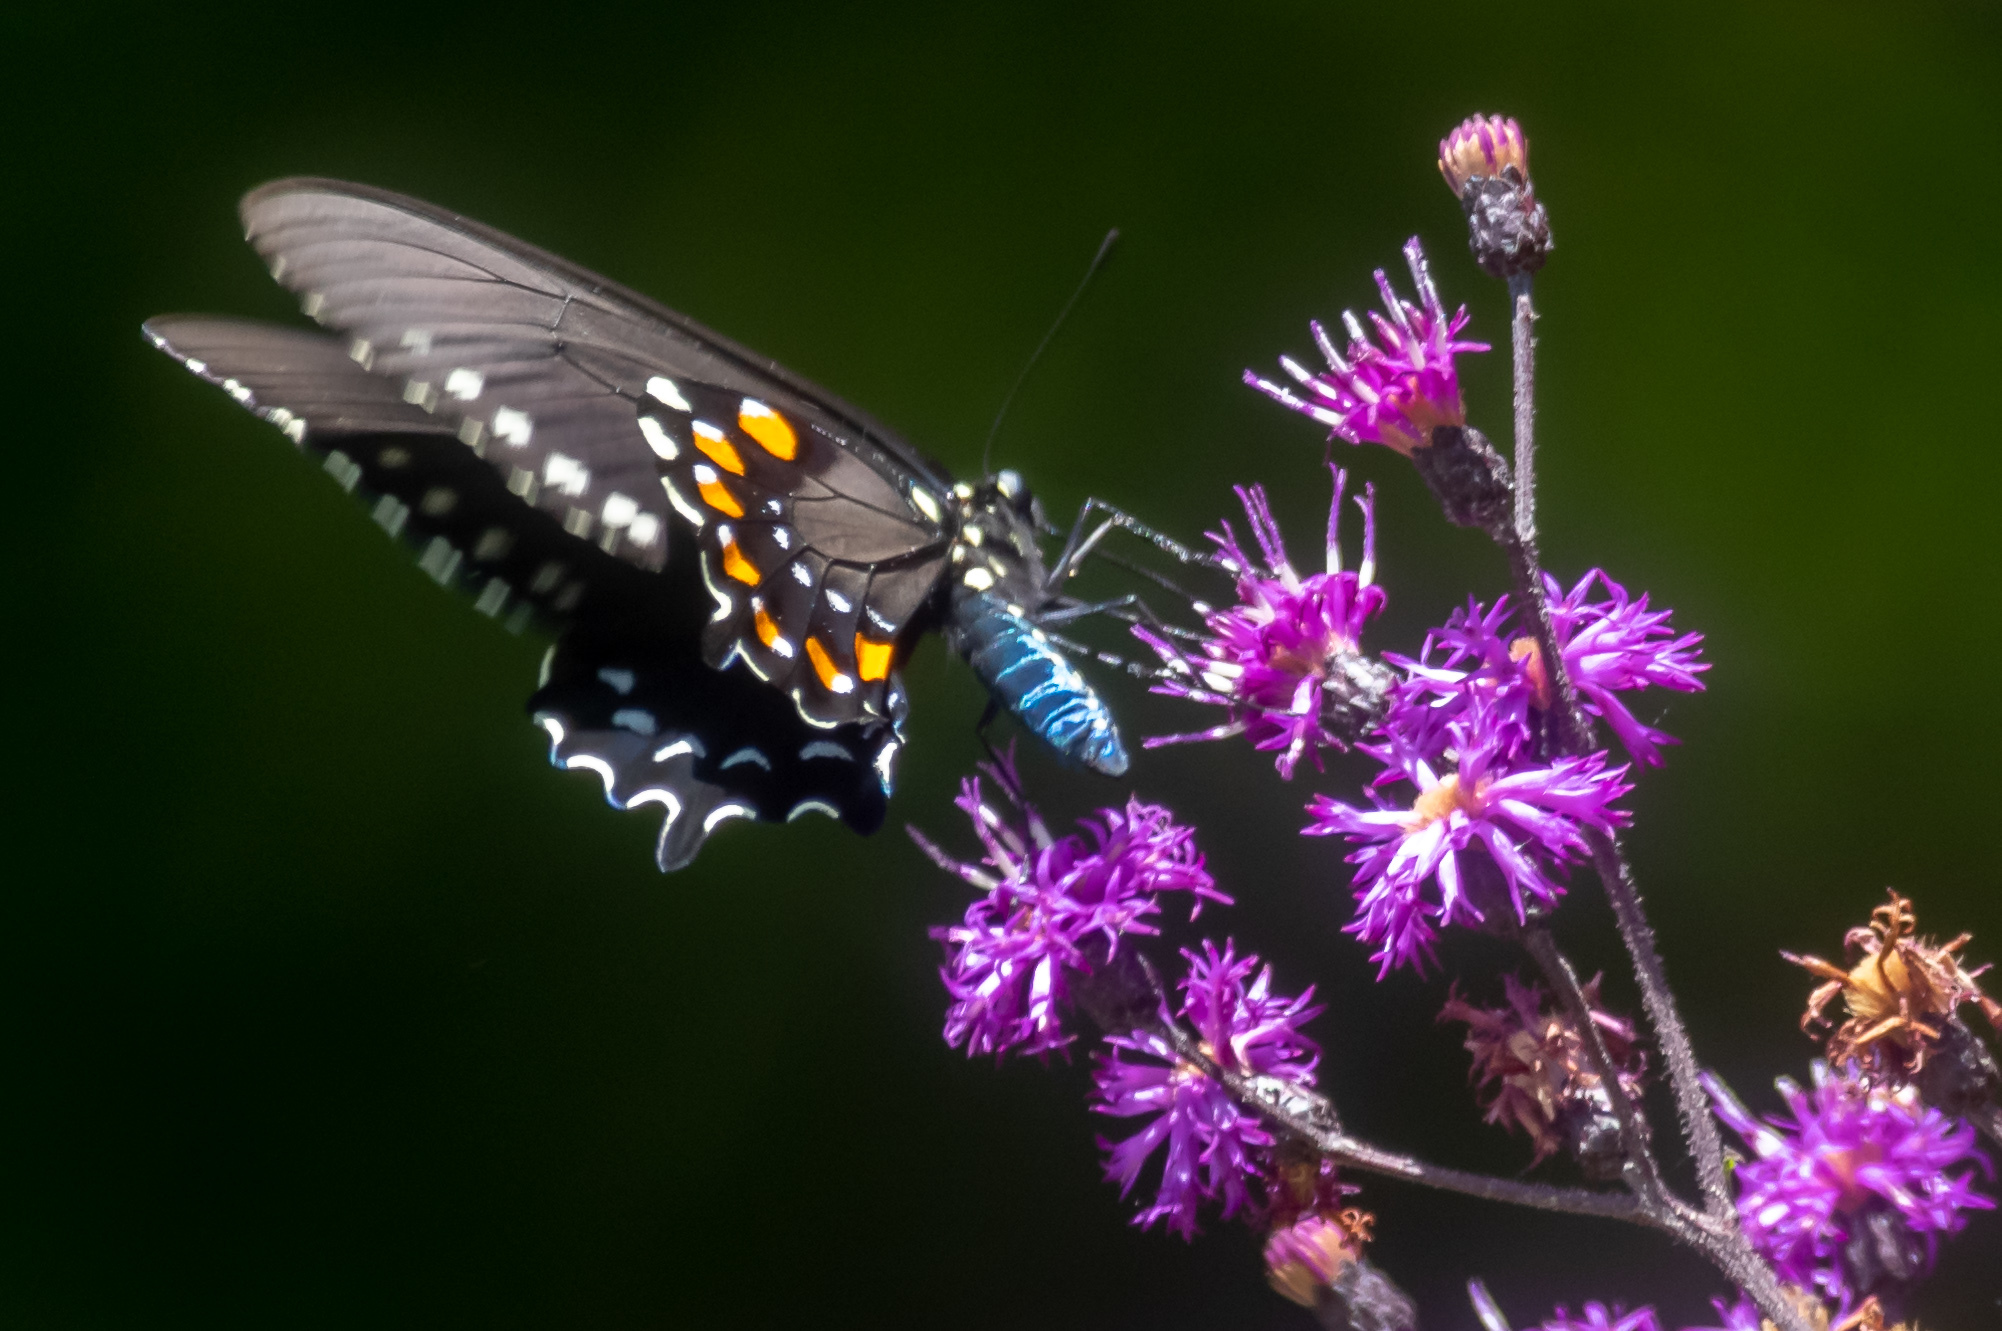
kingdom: Animalia
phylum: Arthropoda
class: Insecta
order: Lepidoptera
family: Papilionidae
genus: Battus
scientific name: Battus philenor
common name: Pipevine swallowtail
